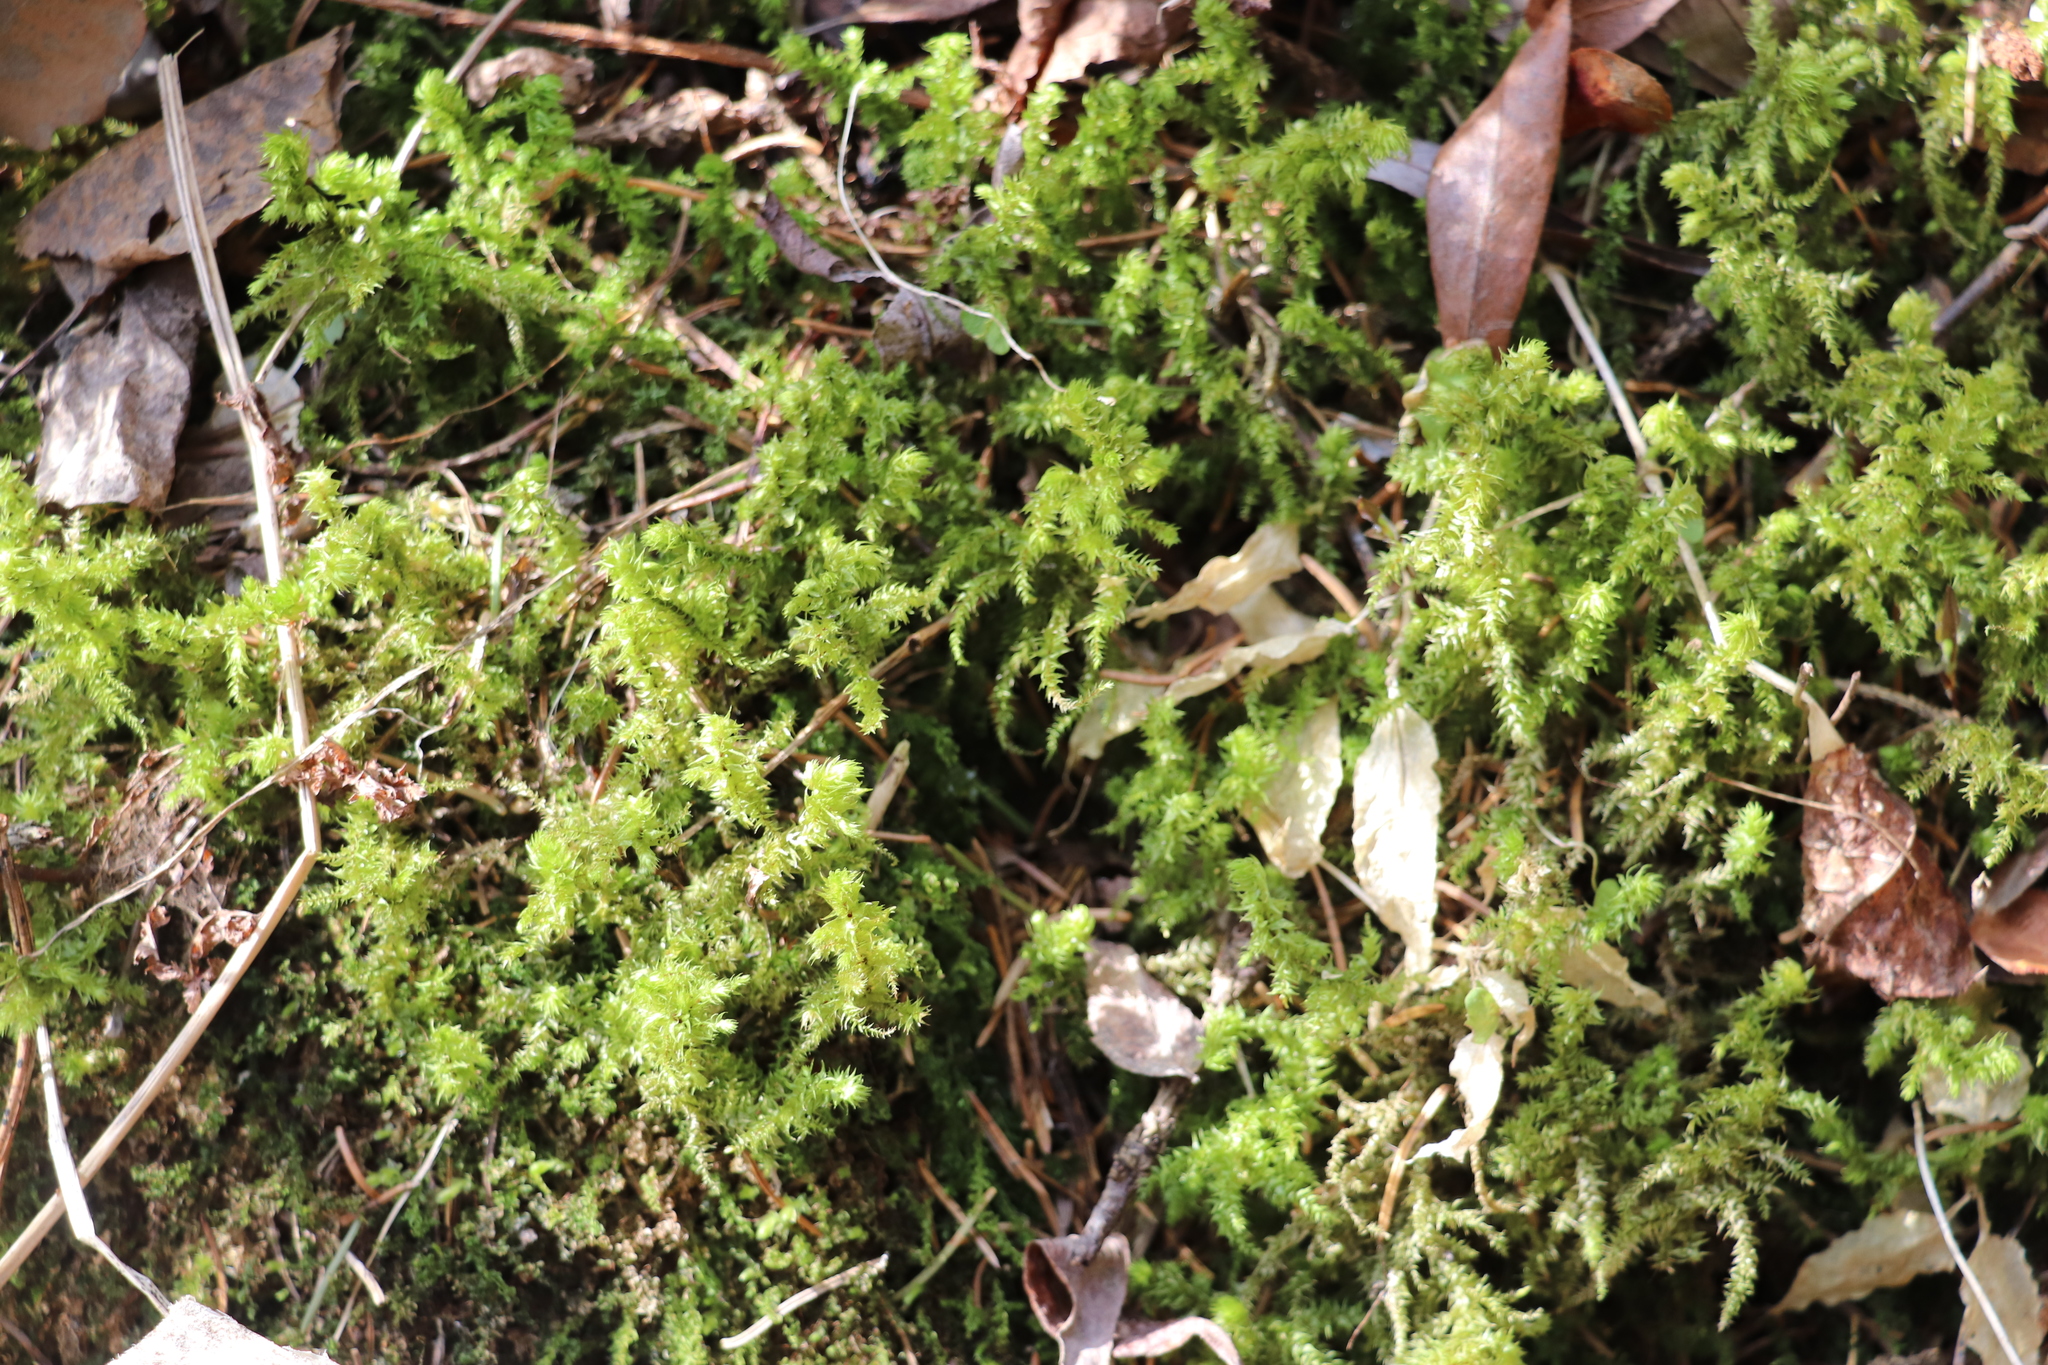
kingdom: Plantae
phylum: Bryophyta
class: Bryopsida
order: Hypnales
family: Hylocomiaceae
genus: Hylocomiadelphus
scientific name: Hylocomiadelphus triquetrus
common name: Rough goose neck moss
